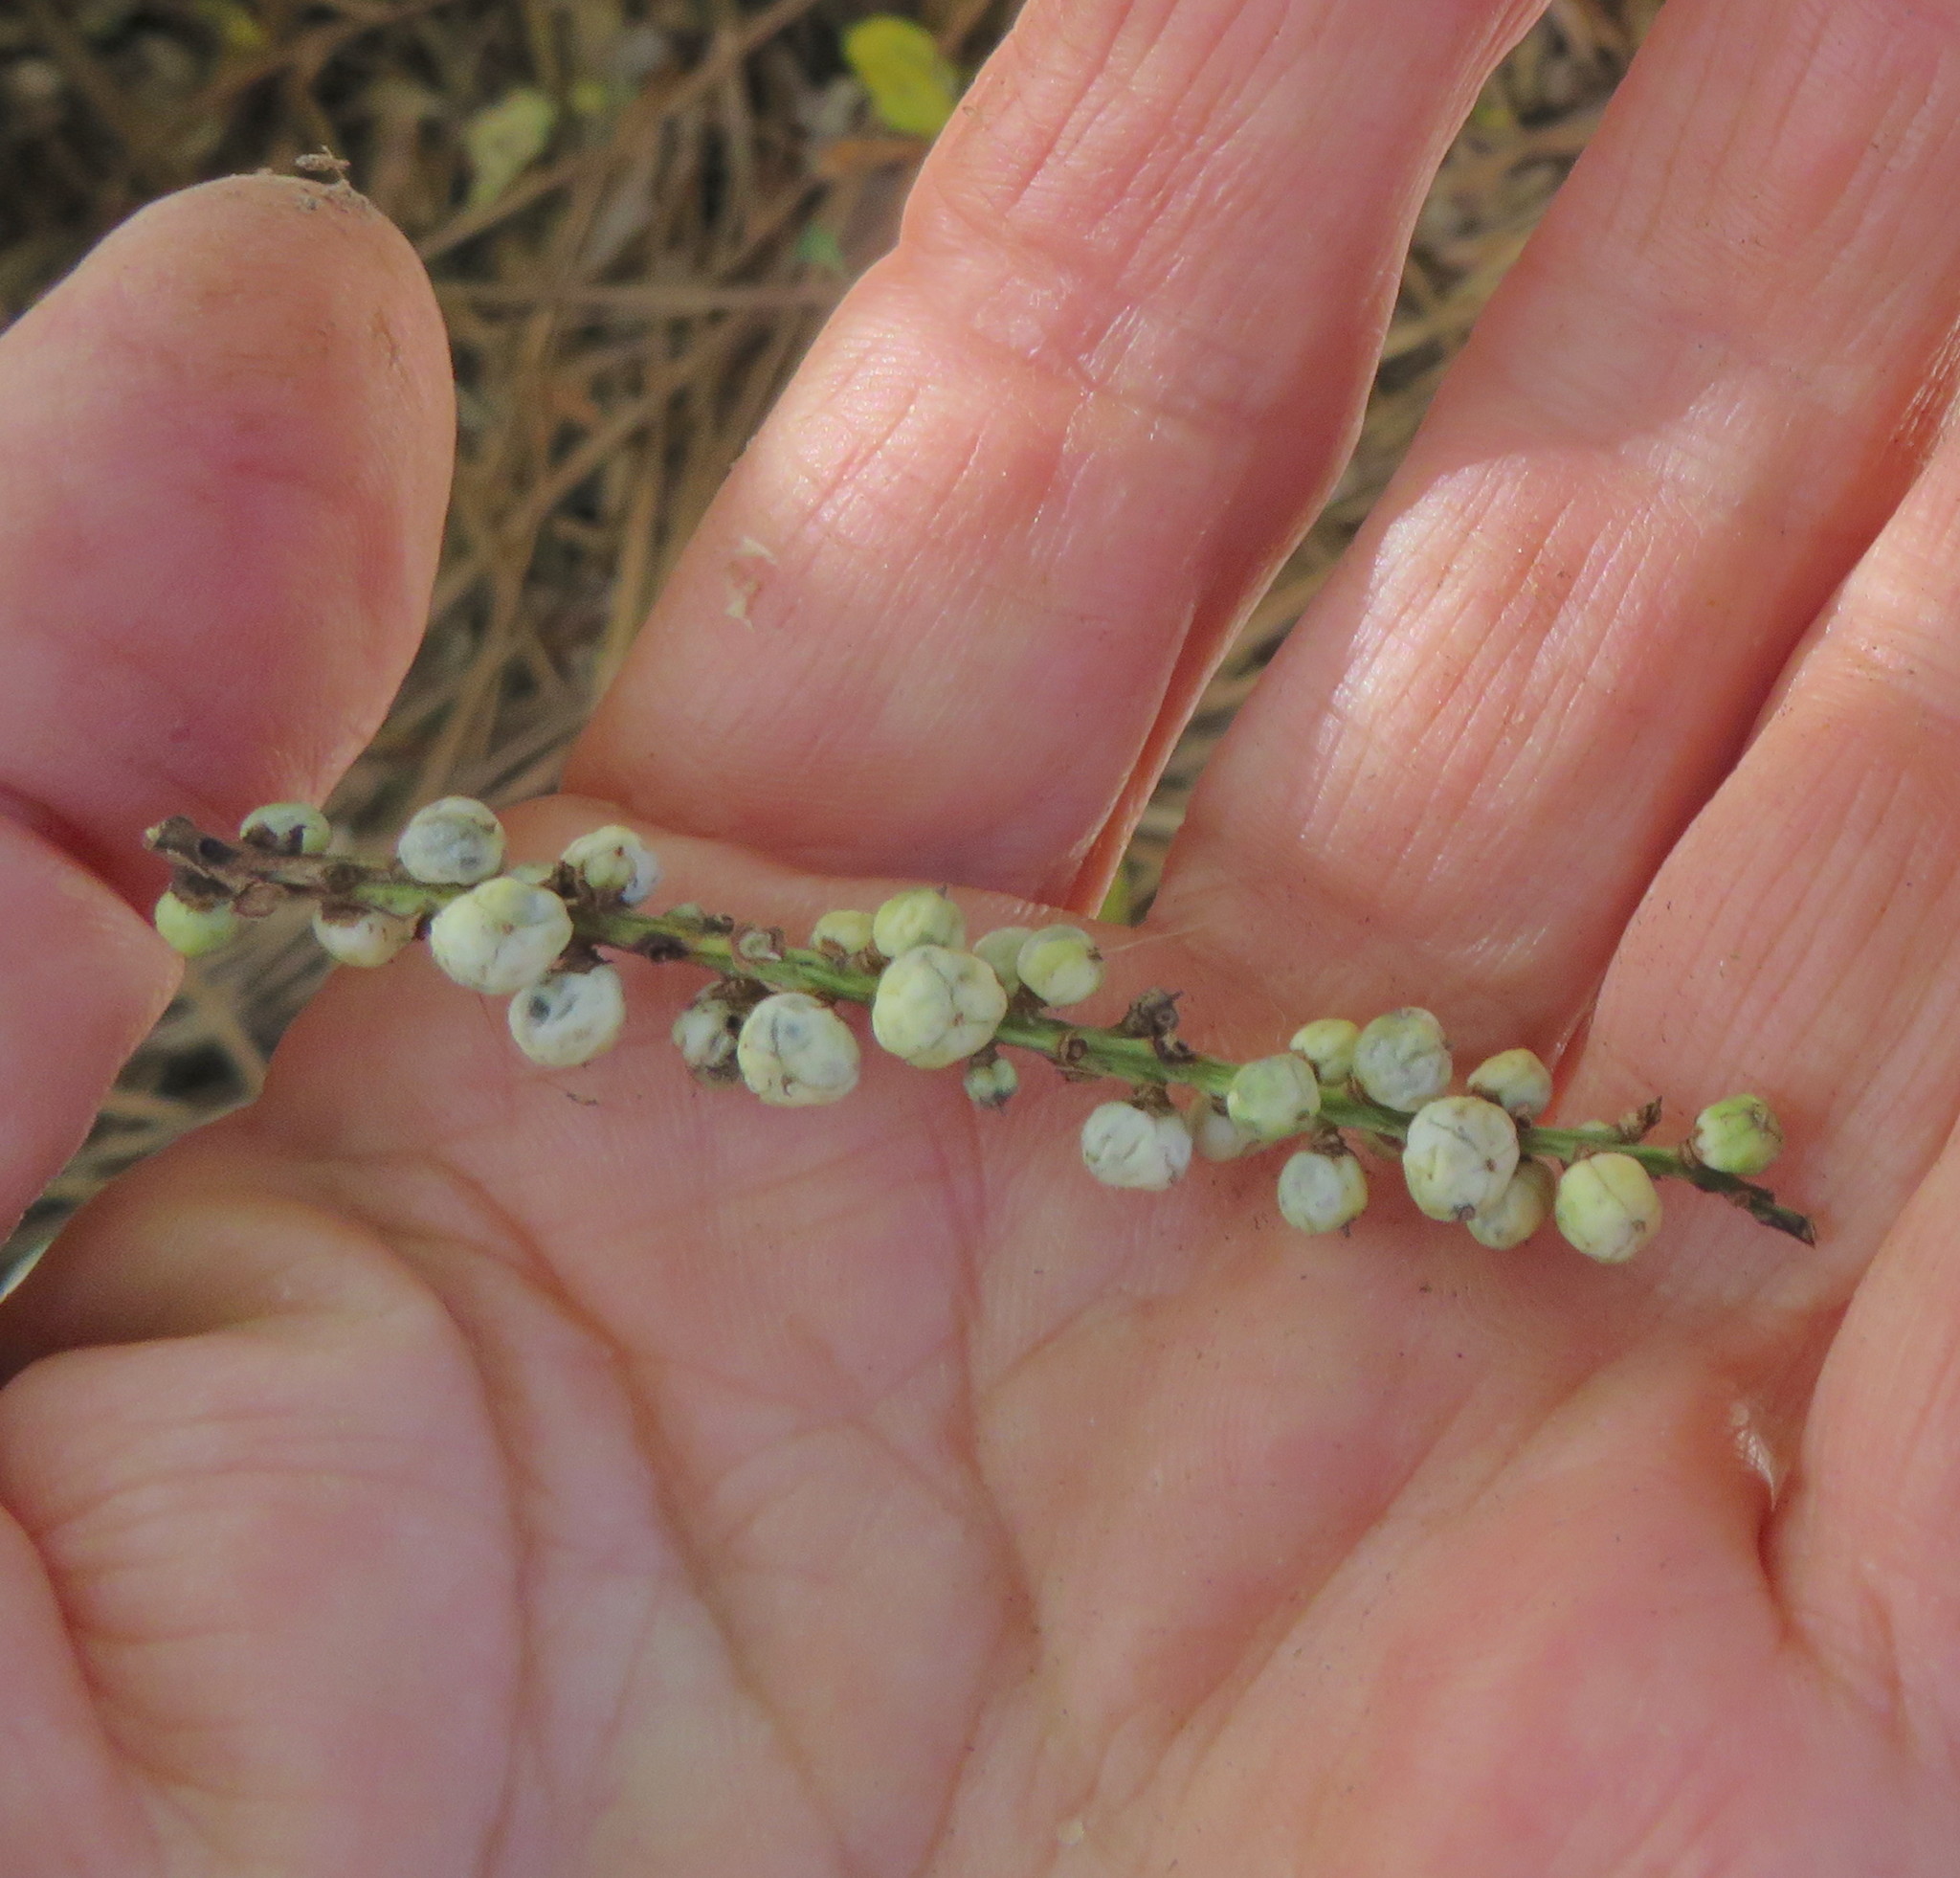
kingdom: Plantae
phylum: Tracheophyta
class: Liliopsida
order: Asparagales
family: Asparagaceae
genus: Cordyline
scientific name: Cordyline australis
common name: Cabbage-palm
